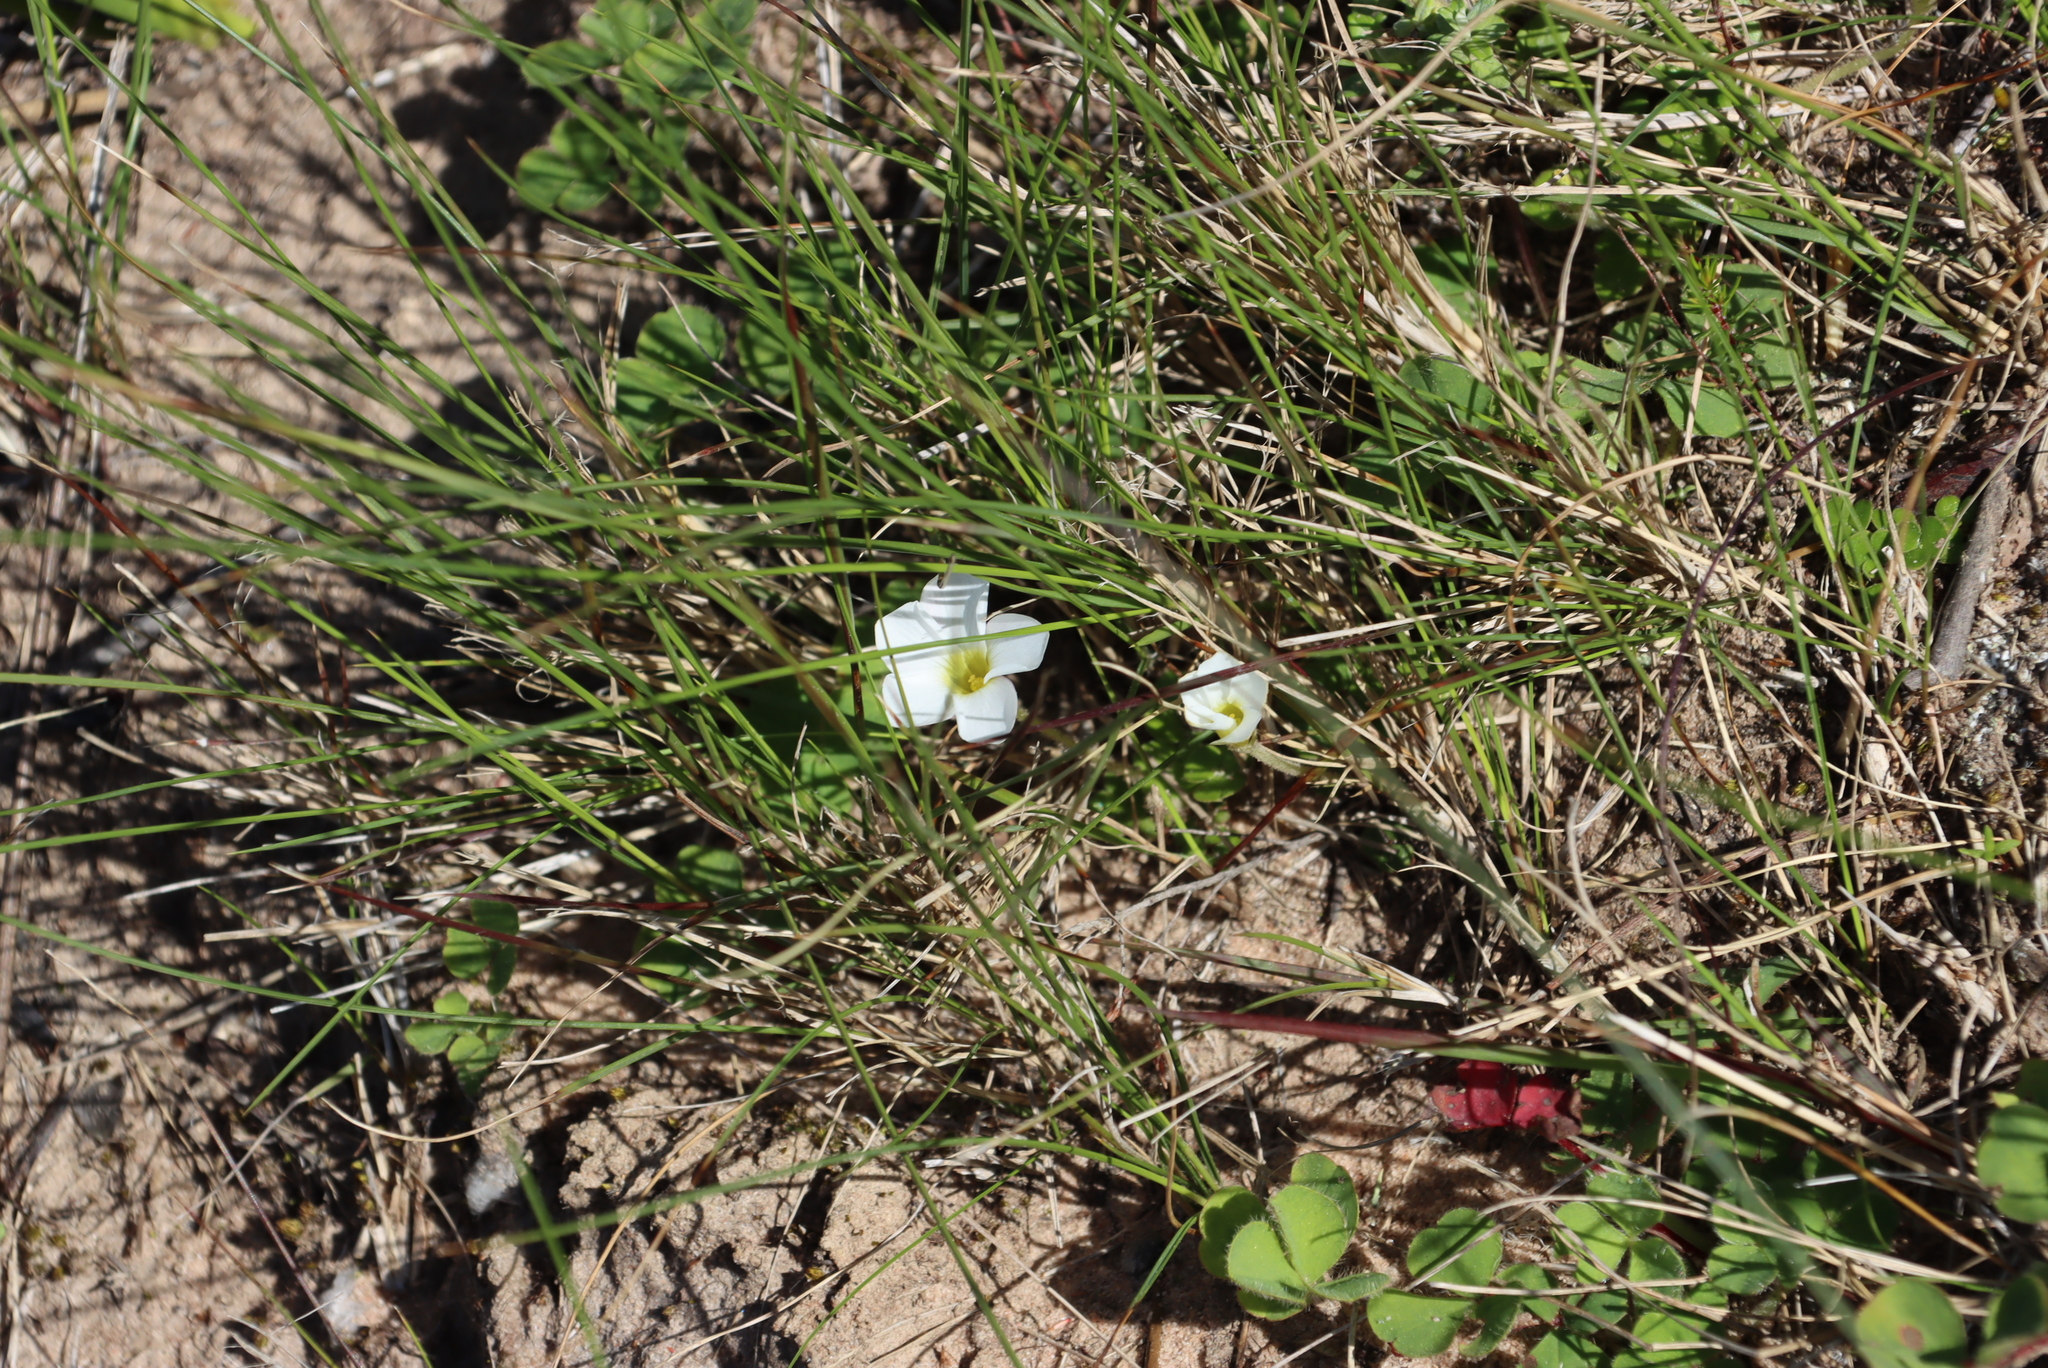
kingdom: Plantae
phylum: Tracheophyta
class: Magnoliopsida
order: Oxalidales
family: Oxalidaceae
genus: Oxalis
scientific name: Oxalis purpurea
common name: Purple woodsorrel
